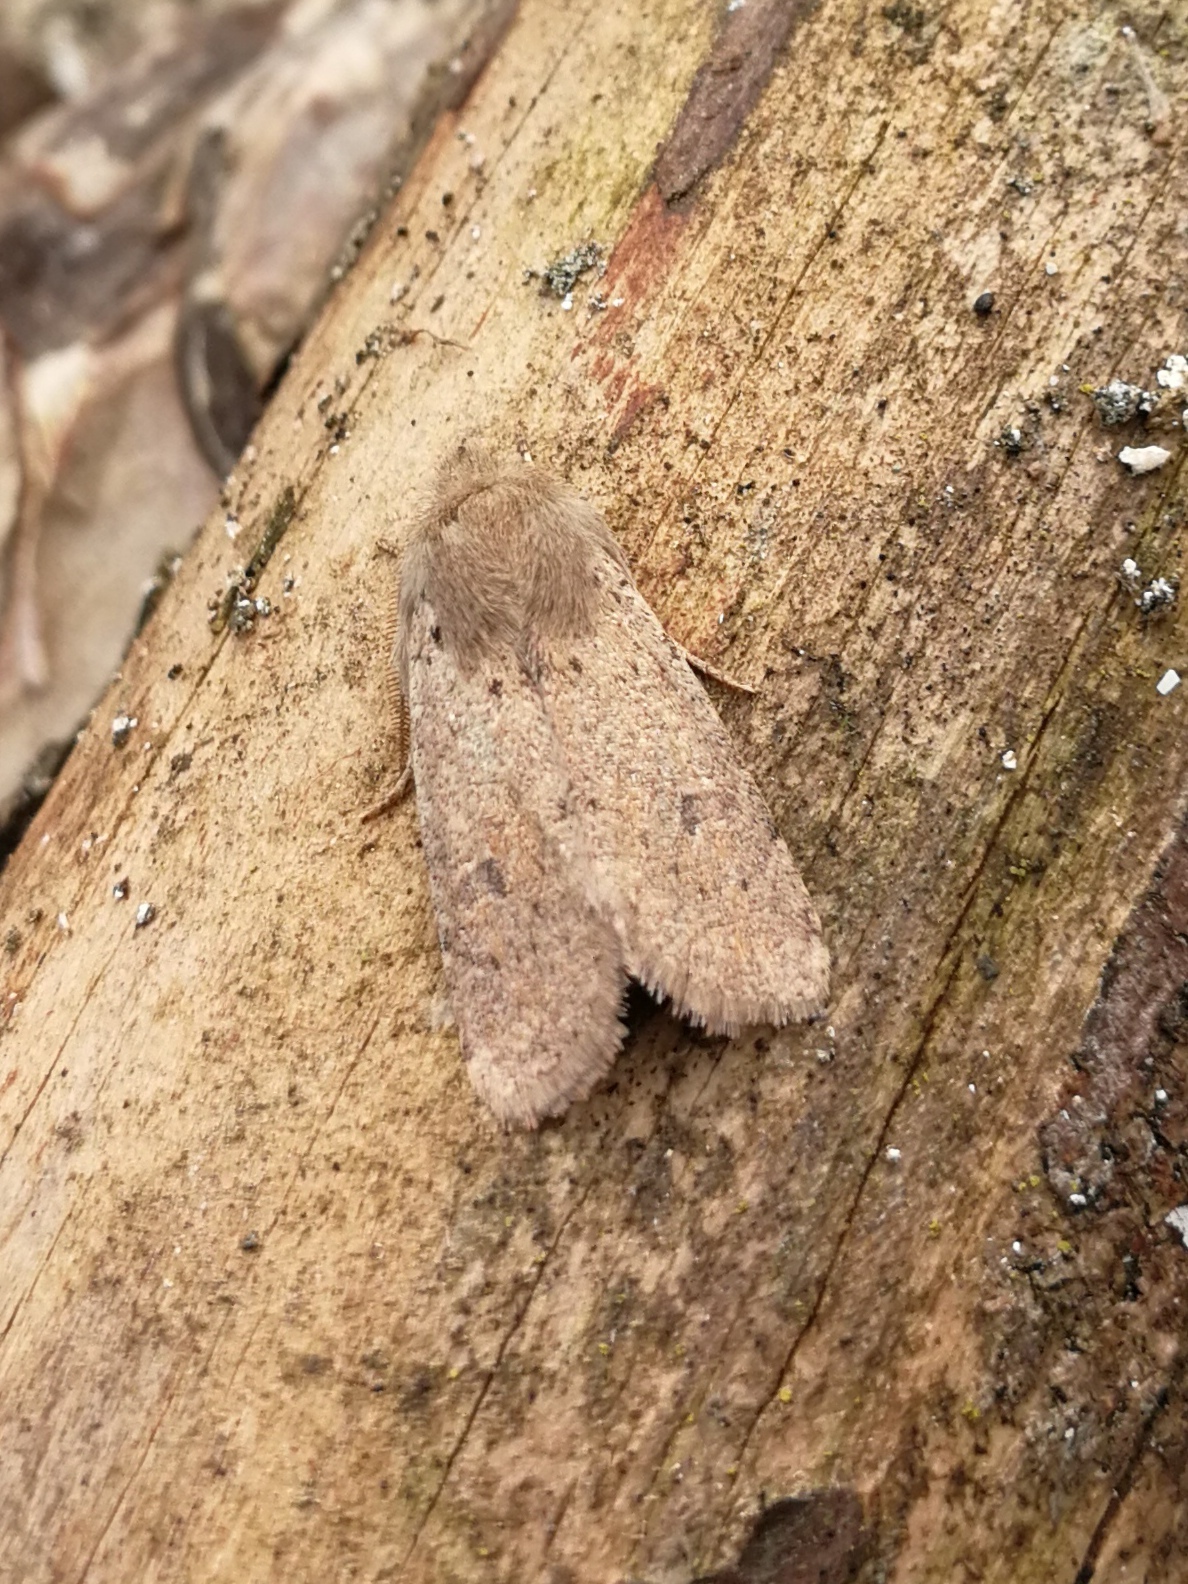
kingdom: Animalia
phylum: Arthropoda
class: Insecta
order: Lepidoptera
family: Noctuidae
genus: Orthosia
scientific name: Orthosia cruda
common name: Small quaker
